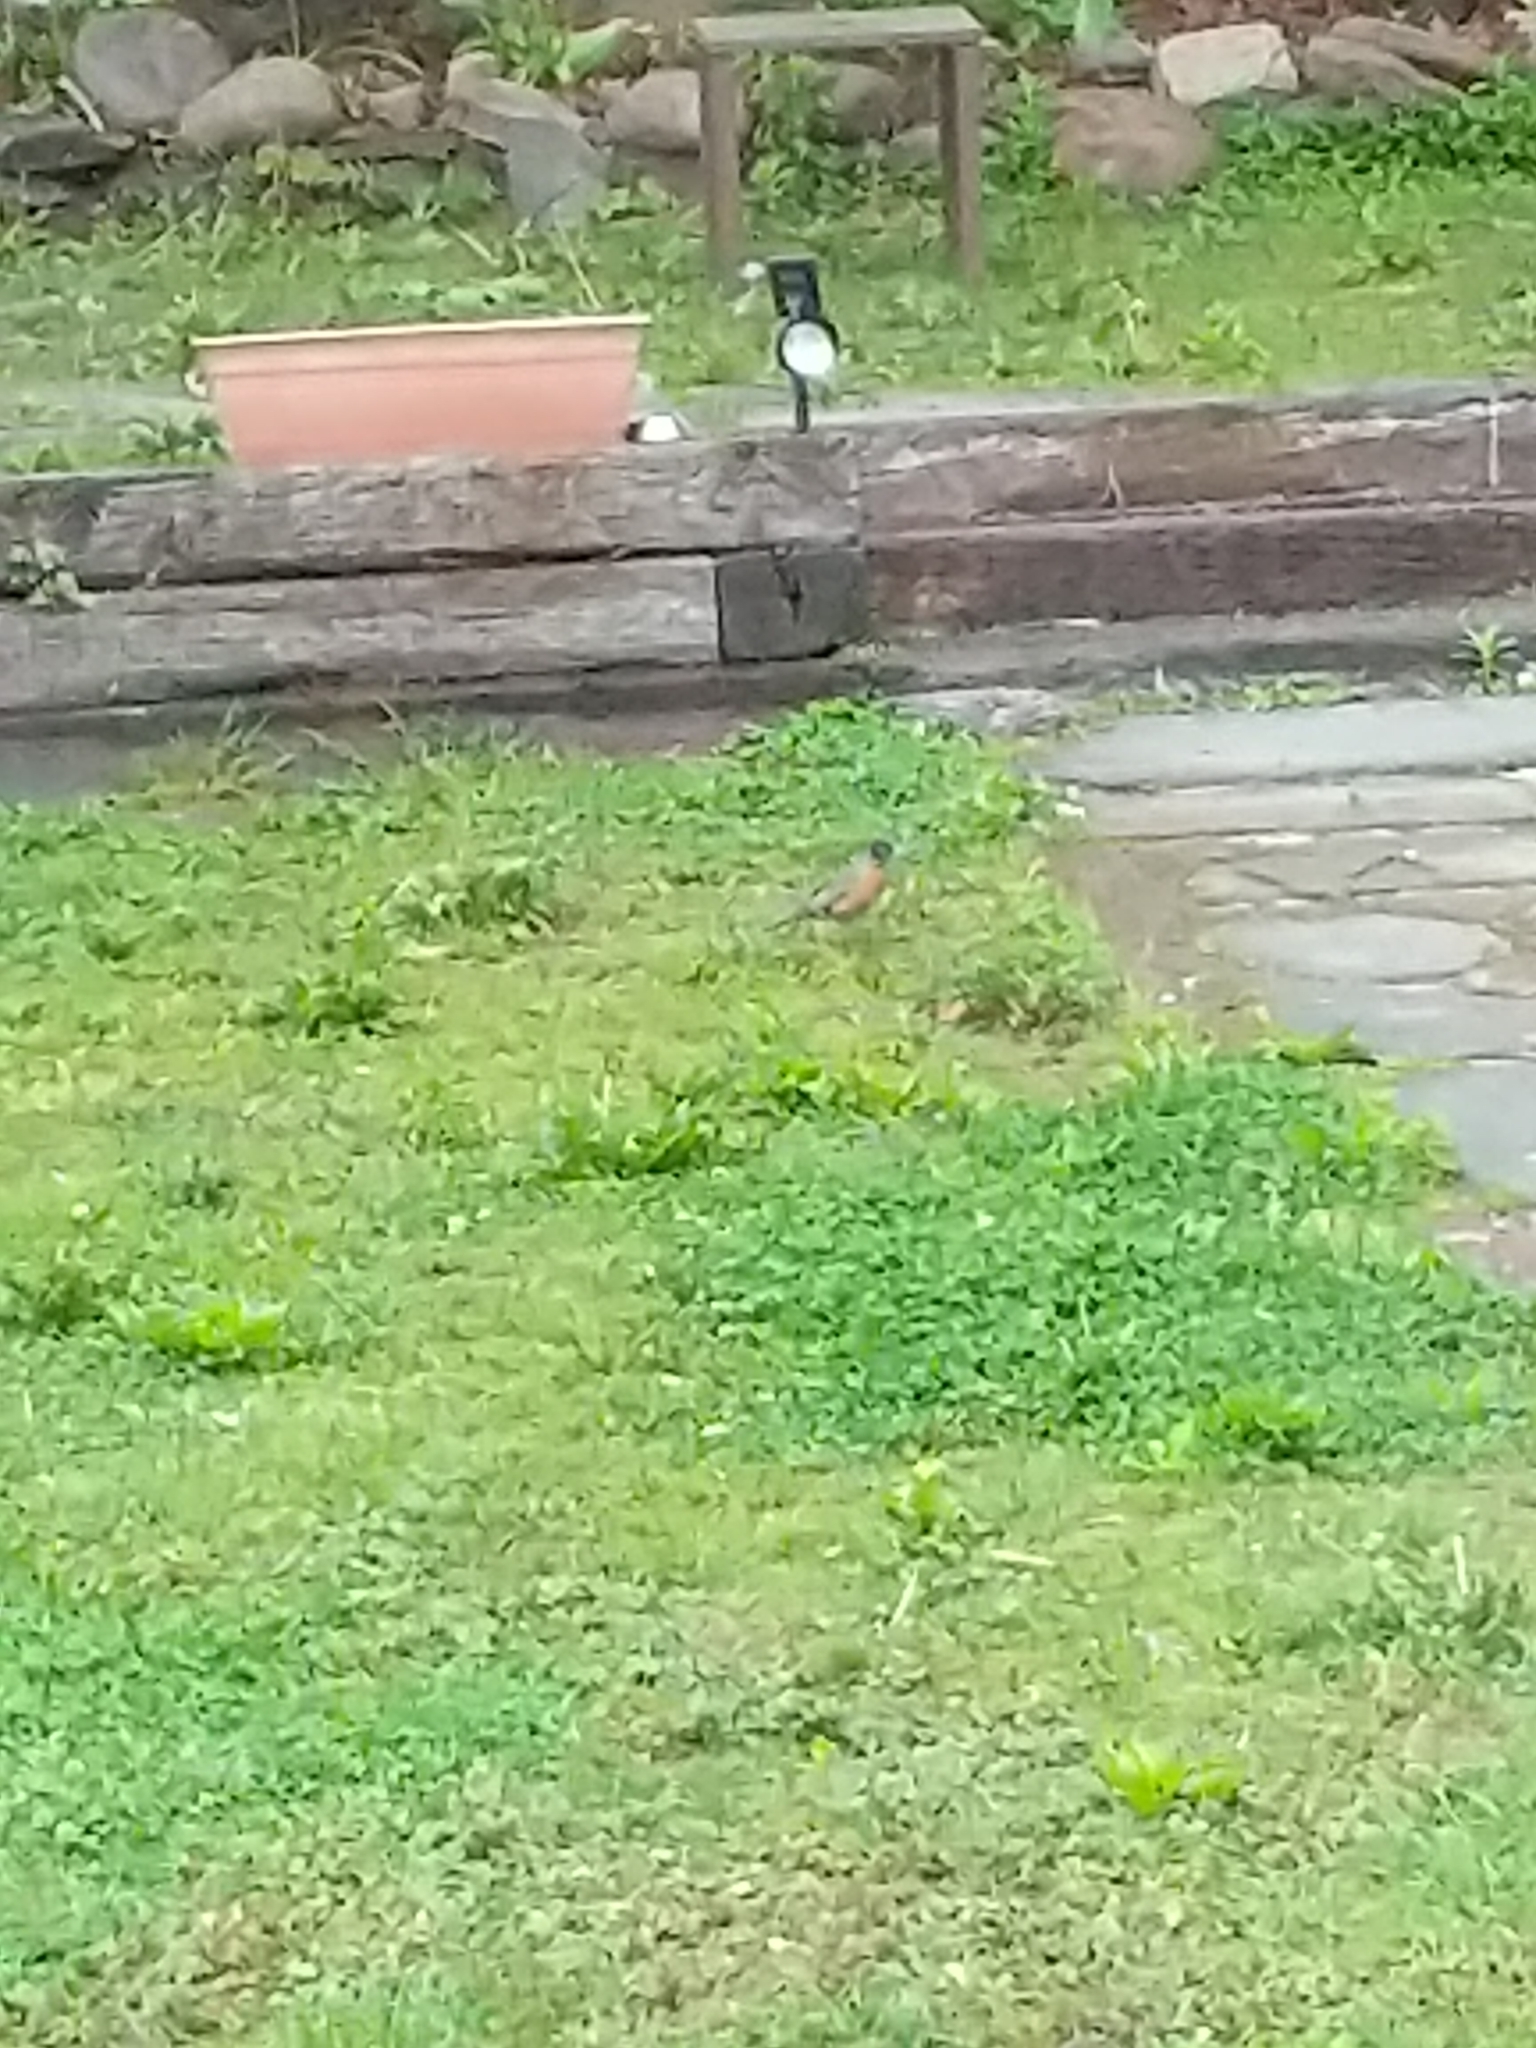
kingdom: Animalia
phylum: Chordata
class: Aves
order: Passeriformes
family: Turdidae
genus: Turdus
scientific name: Turdus migratorius
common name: American robin
